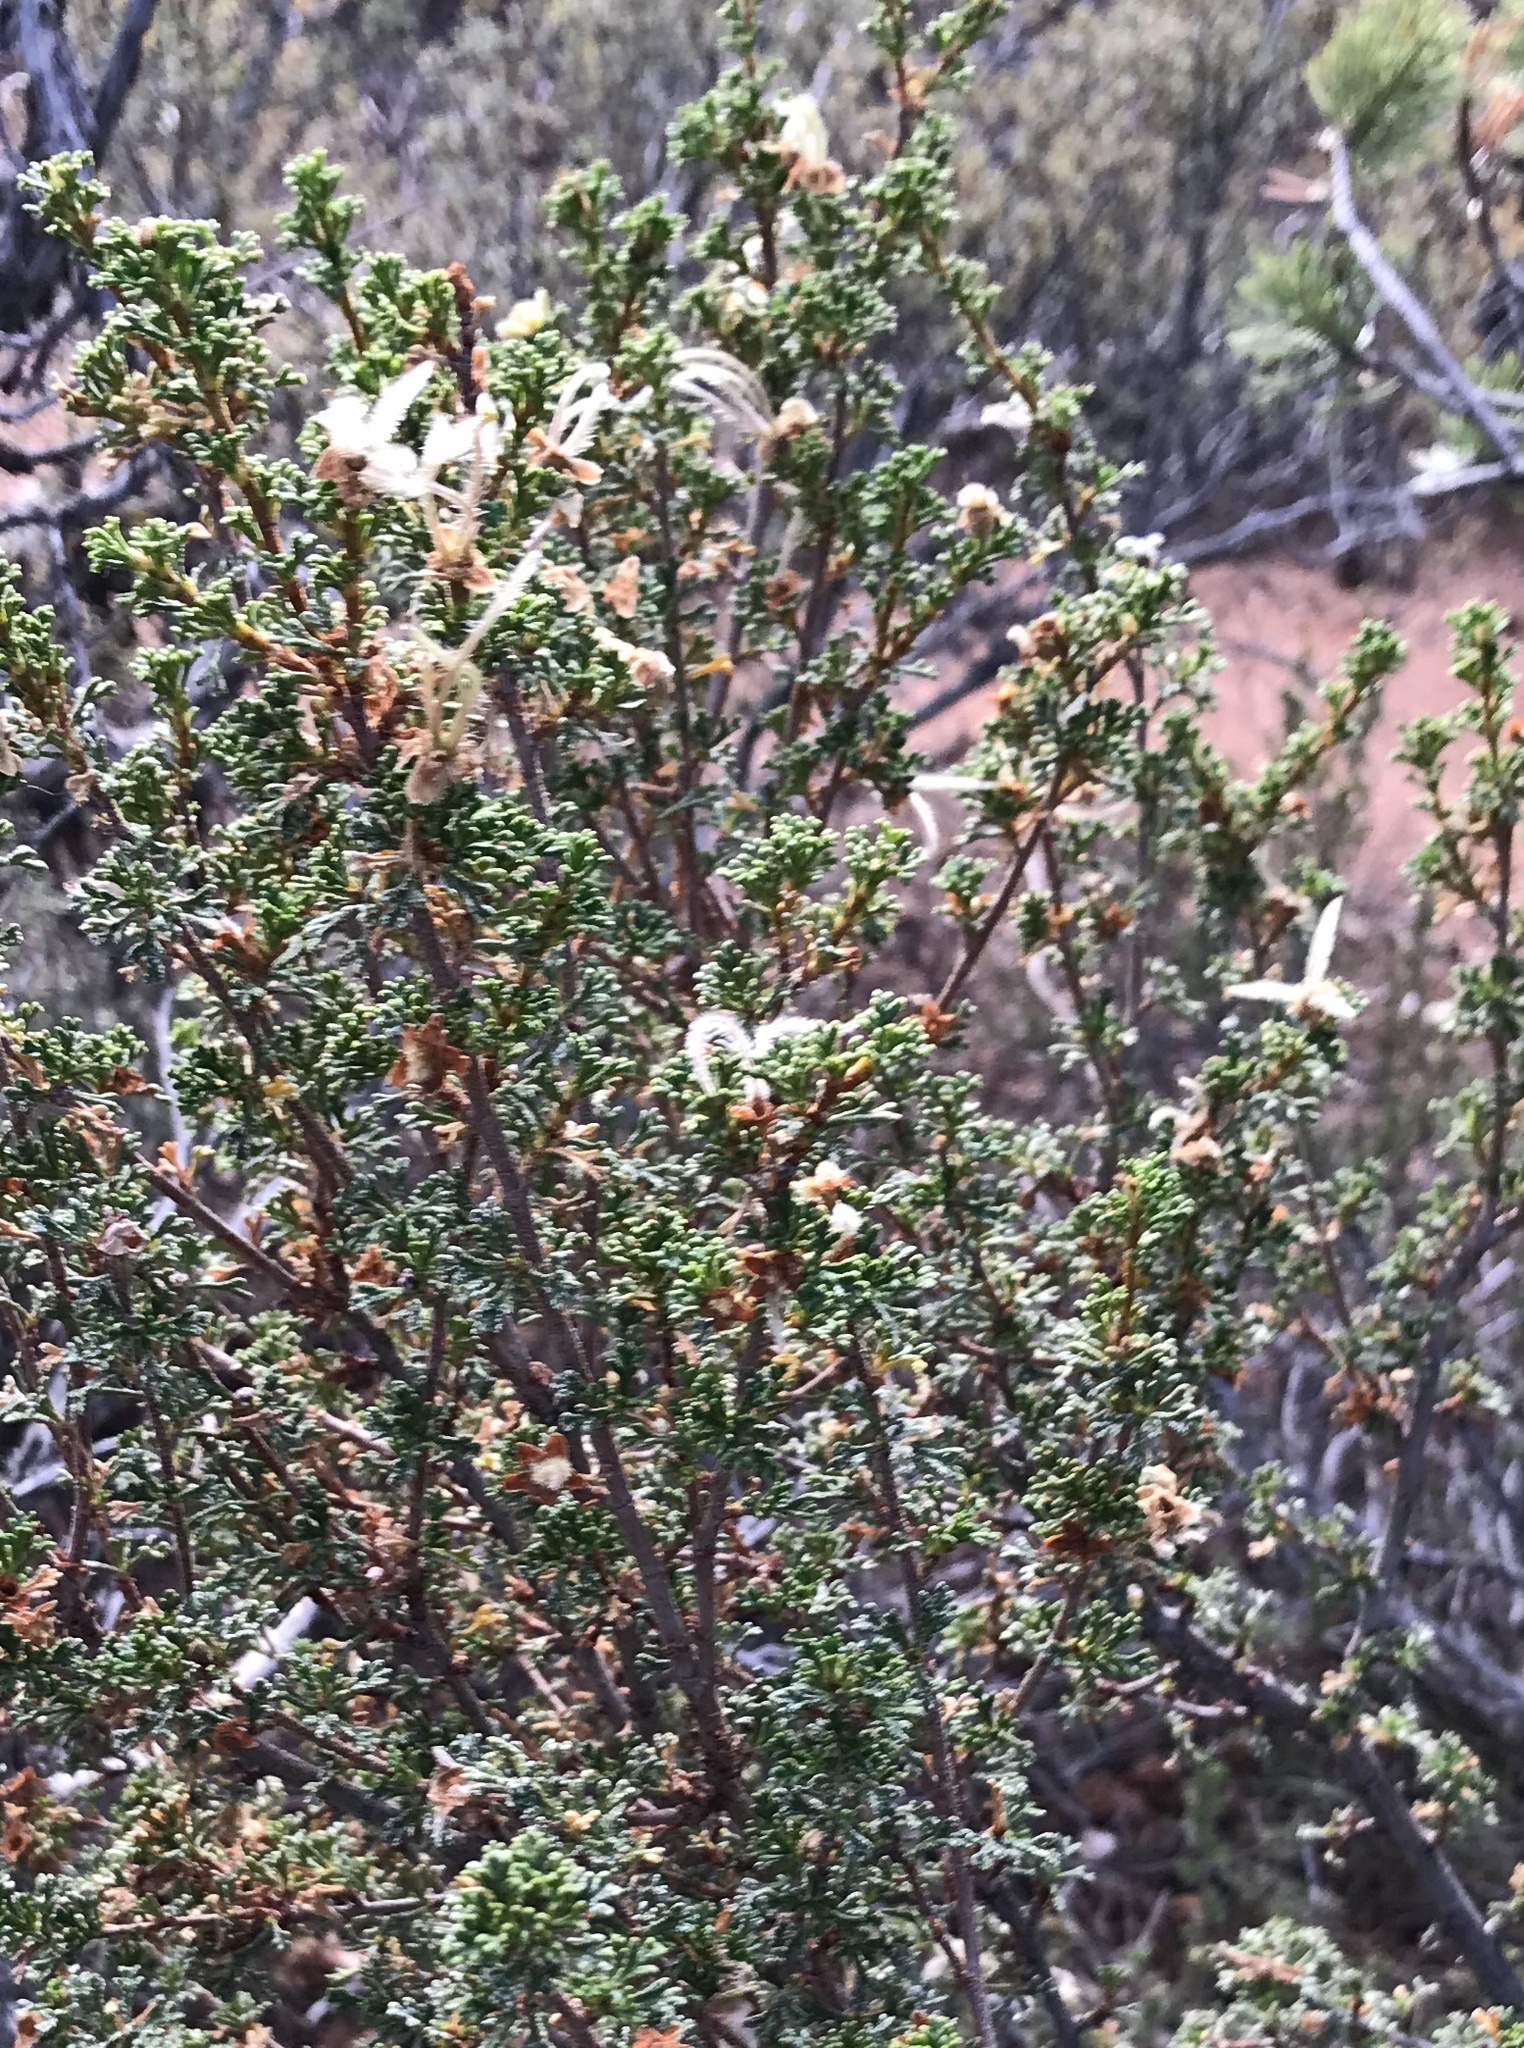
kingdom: Plantae
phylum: Tracheophyta
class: Magnoliopsida
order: Rosales
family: Rosaceae
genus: Purshia
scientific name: Purshia stansburiana
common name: Stansbury's cliffrose
